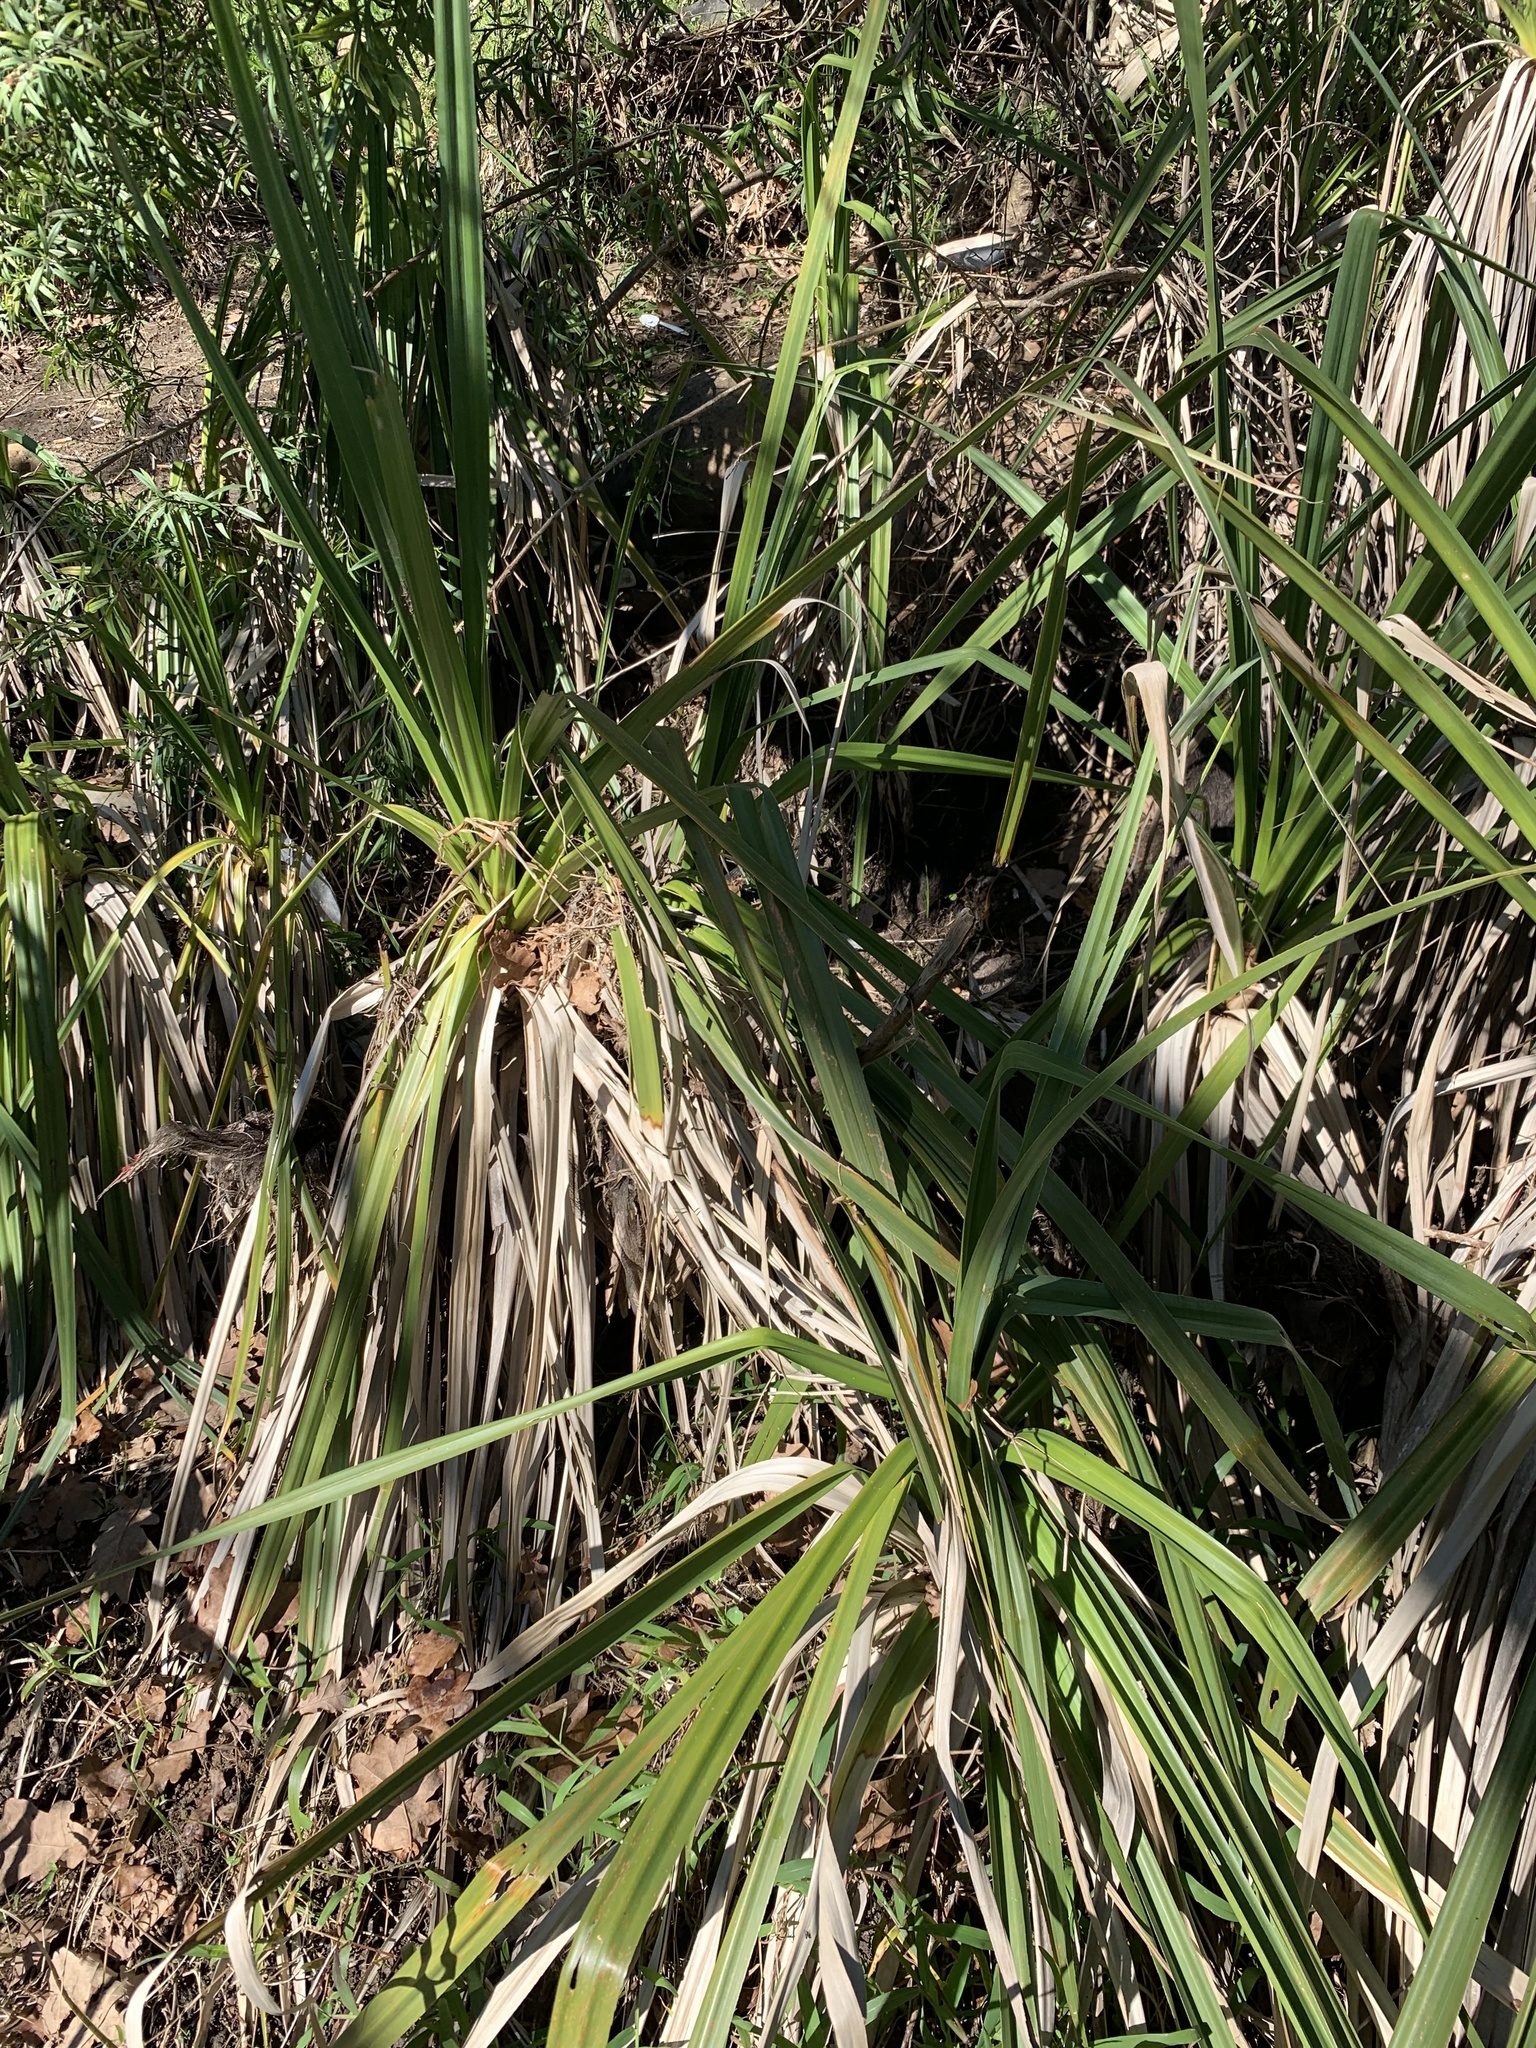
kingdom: Plantae
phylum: Tracheophyta
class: Liliopsida
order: Poales
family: Thurniaceae
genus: Prionium
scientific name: Prionium serratum
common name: Palmiet
